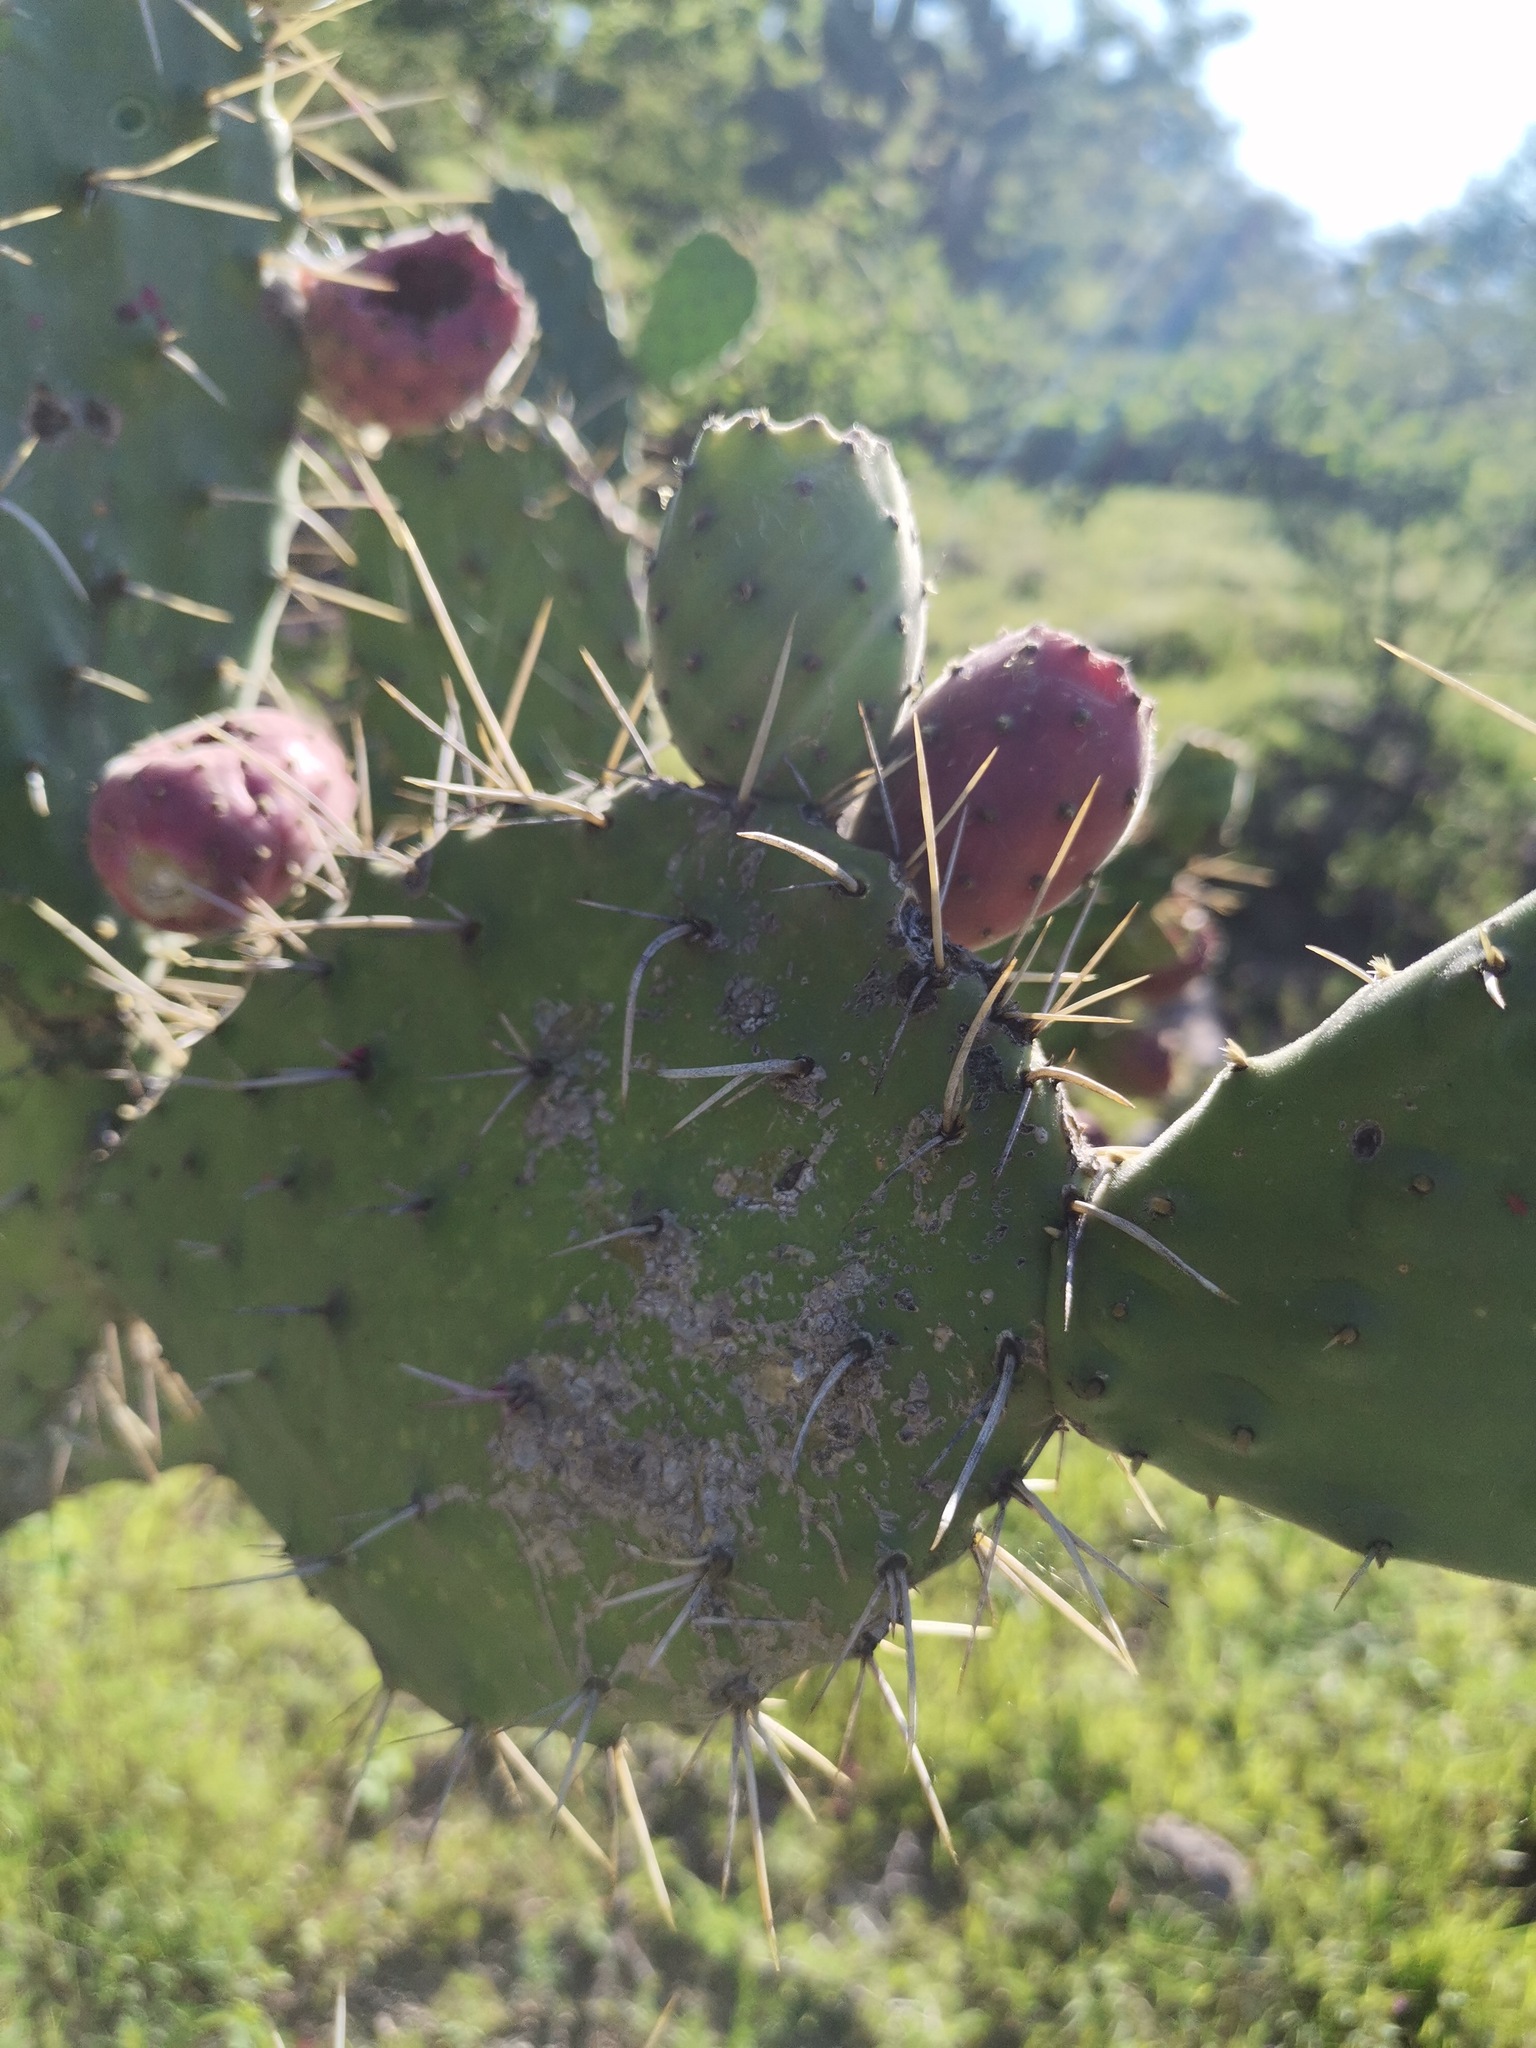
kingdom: Plantae
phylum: Tracheophyta
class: Magnoliopsida
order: Caryophyllales
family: Cactaceae
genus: Opuntia
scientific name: Opuntia tomentosa
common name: Woollyjoint pricklypear
